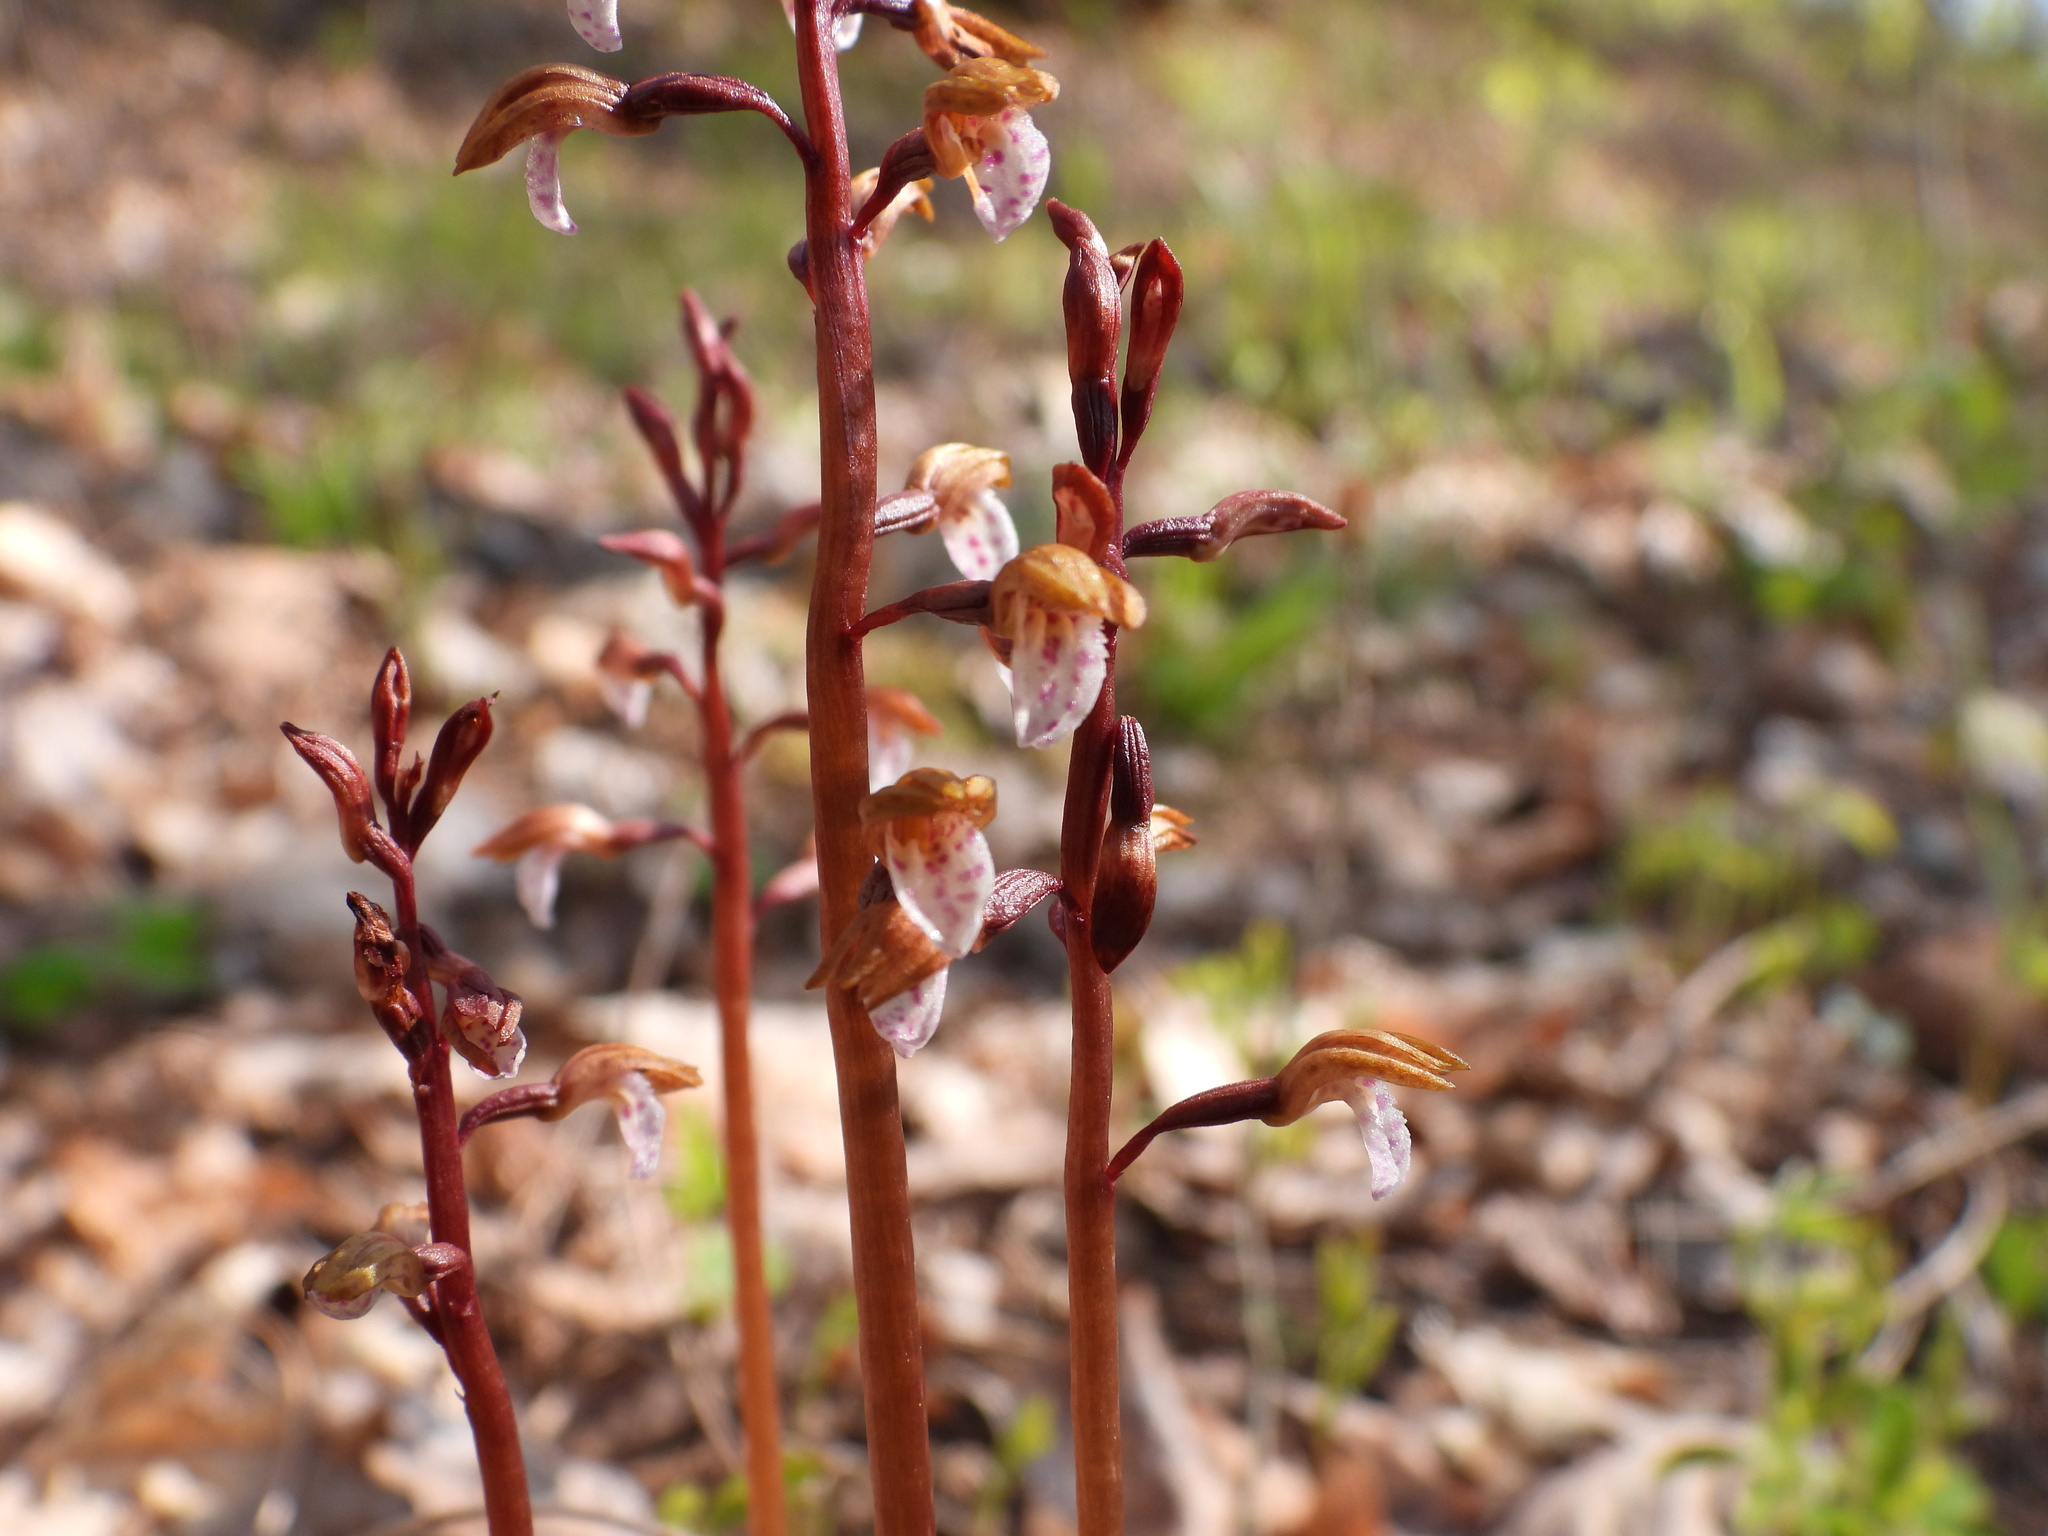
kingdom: Plantae
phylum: Tracheophyta
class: Liliopsida
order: Asparagales
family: Orchidaceae
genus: Corallorhiza
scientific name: Corallorhiza wisteriana
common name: Spring coralroot
